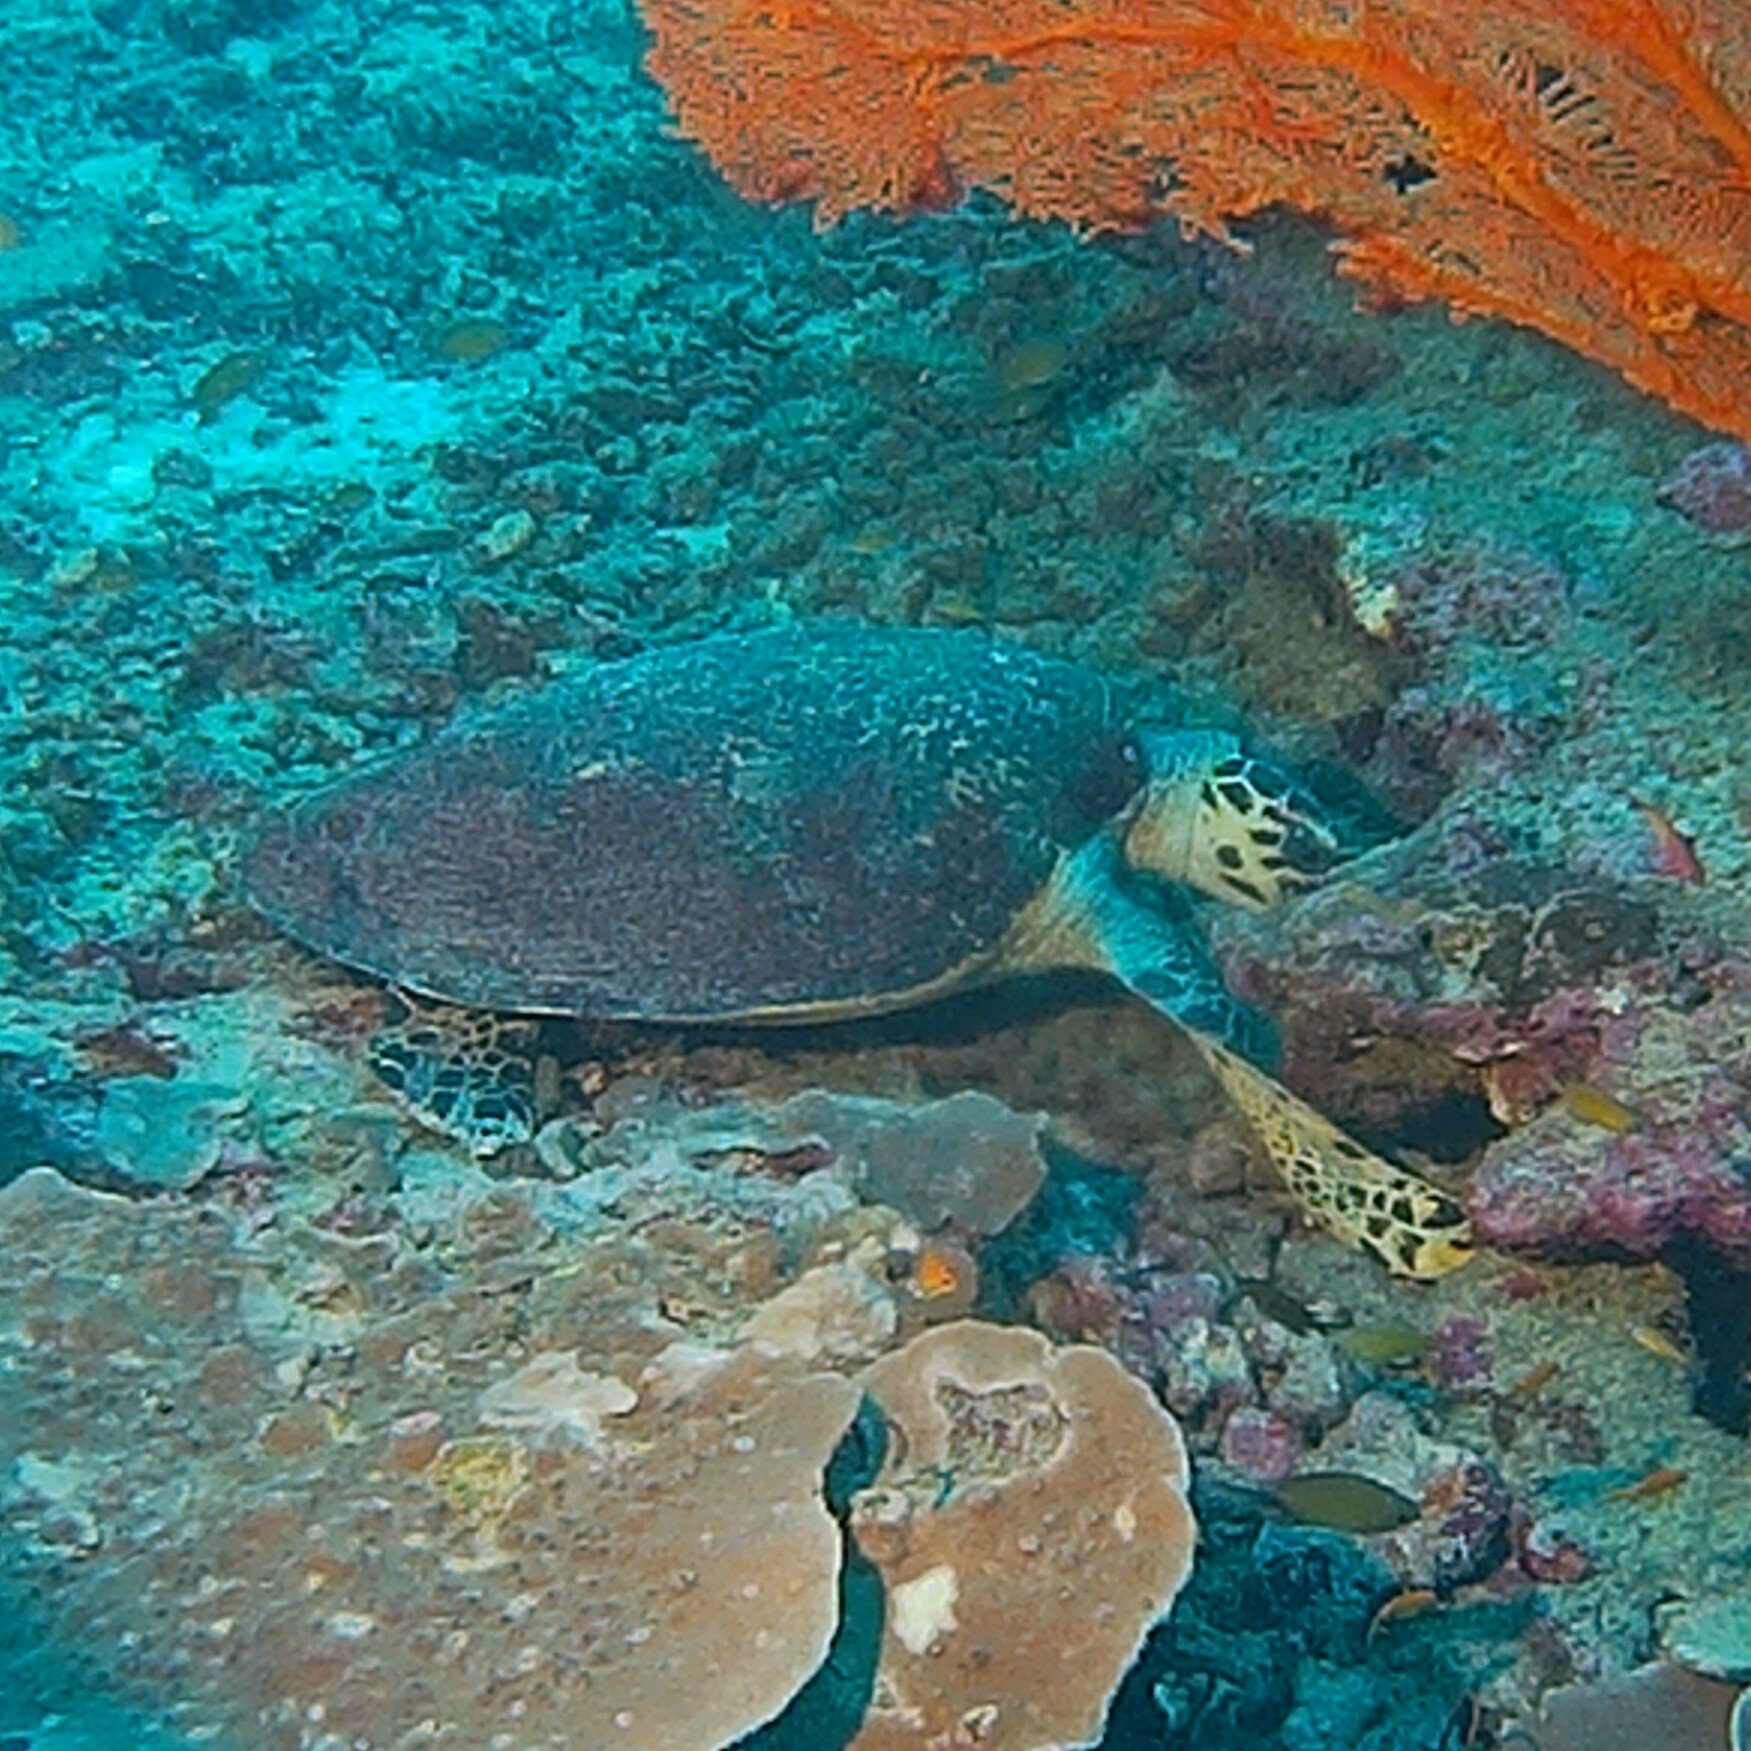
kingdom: Animalia
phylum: Chordata
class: Testudines
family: Cheloniidae
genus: Eretmochelys
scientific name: Eretmochelys imbricata
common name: Hawksbill turtle
